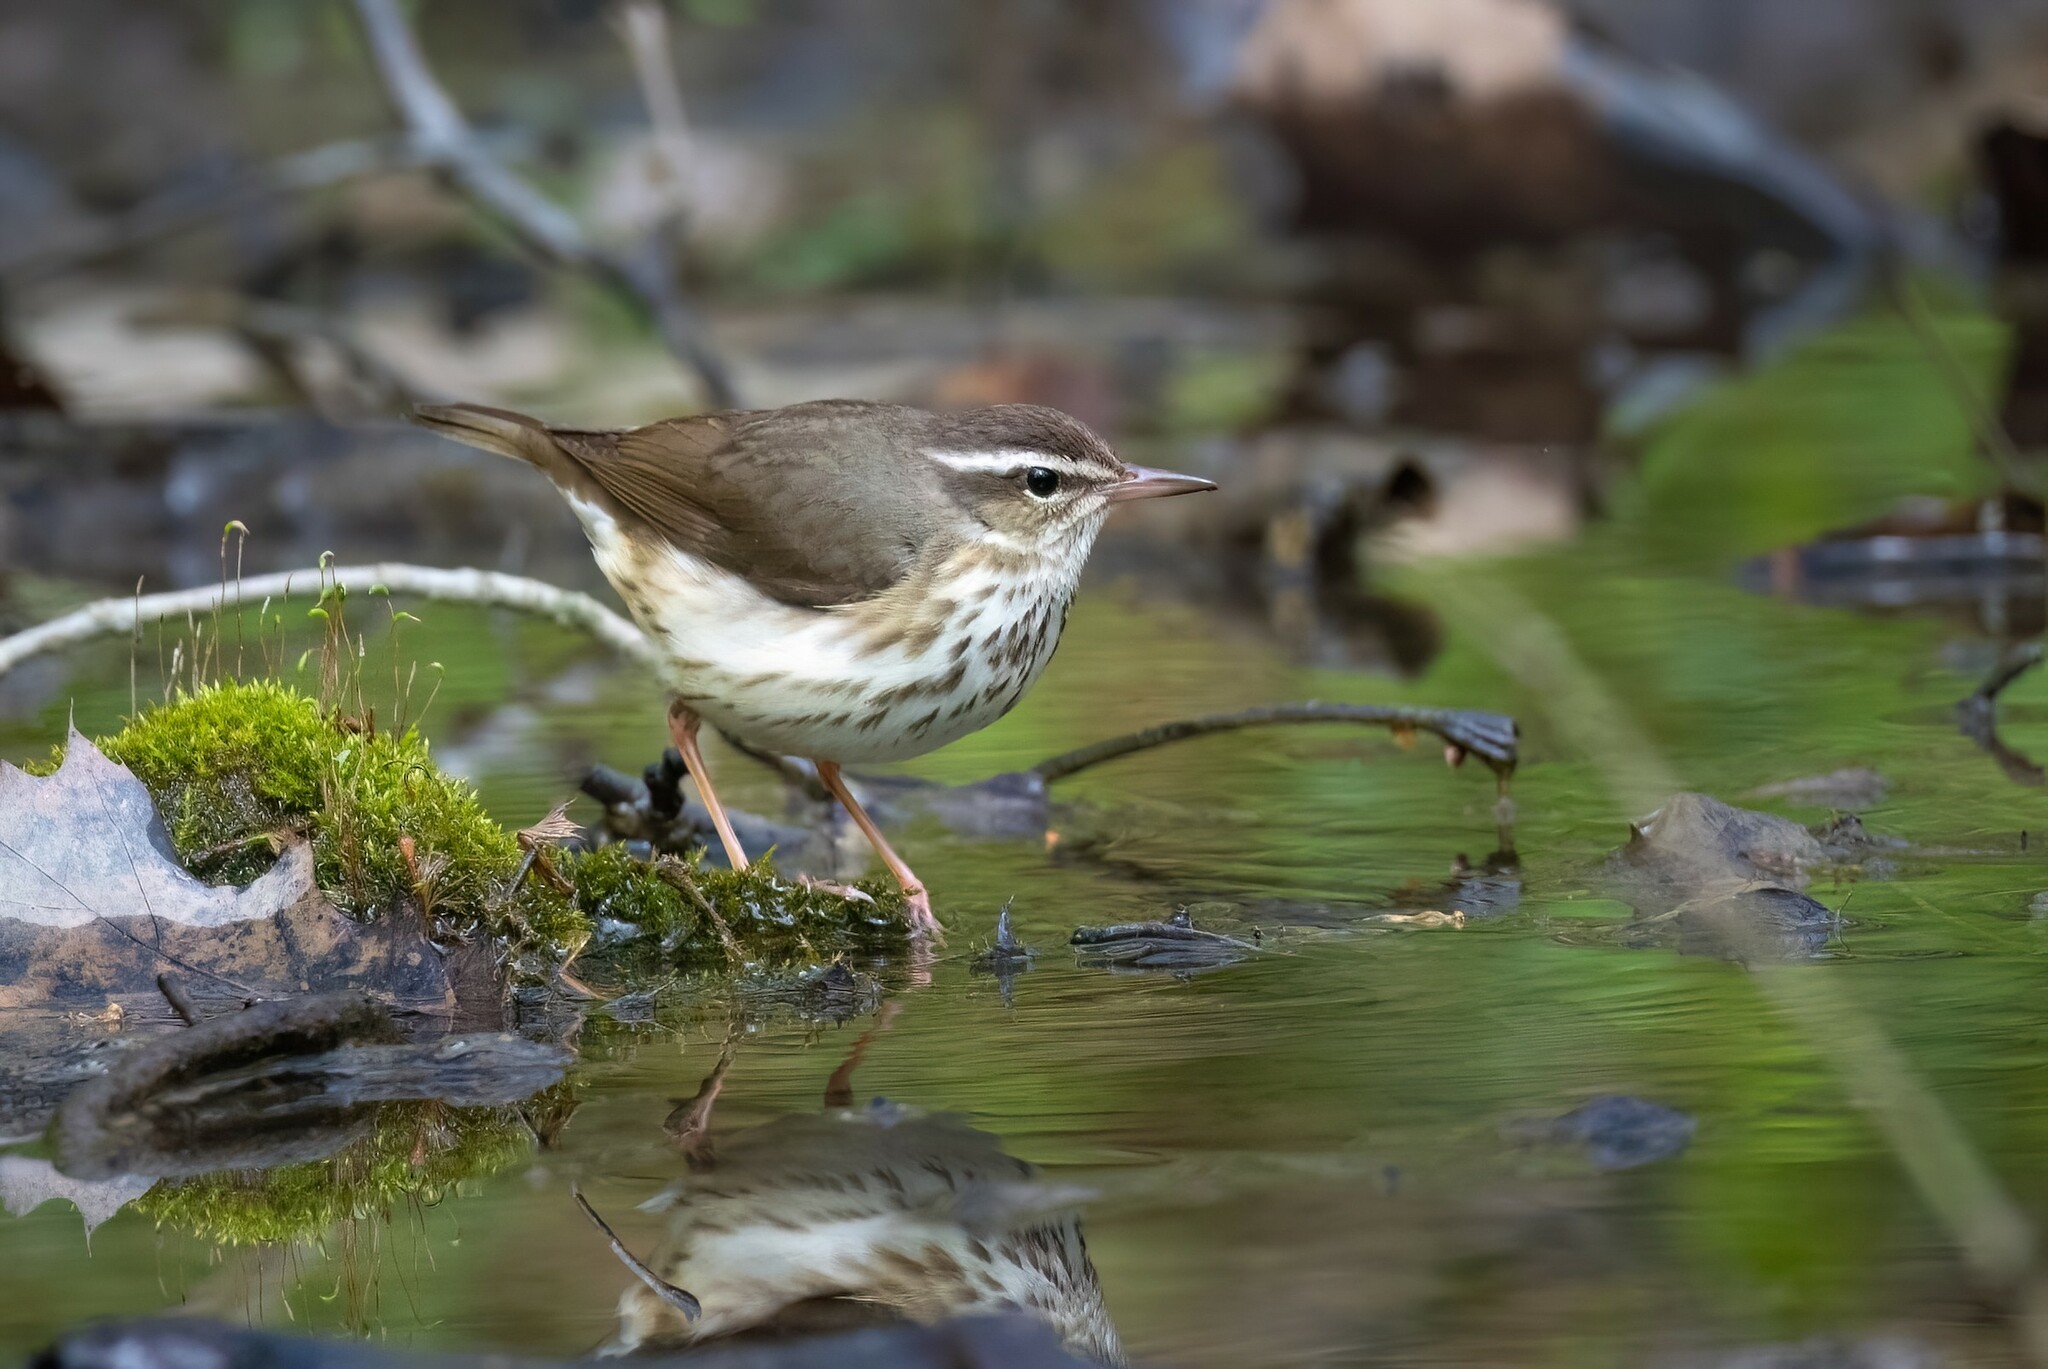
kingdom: Animalia
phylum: Chordata
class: Aves
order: Passeriformes
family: Parulidae
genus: Parkesia
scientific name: Parkesia motacilla
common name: Louisiana waterthrush
